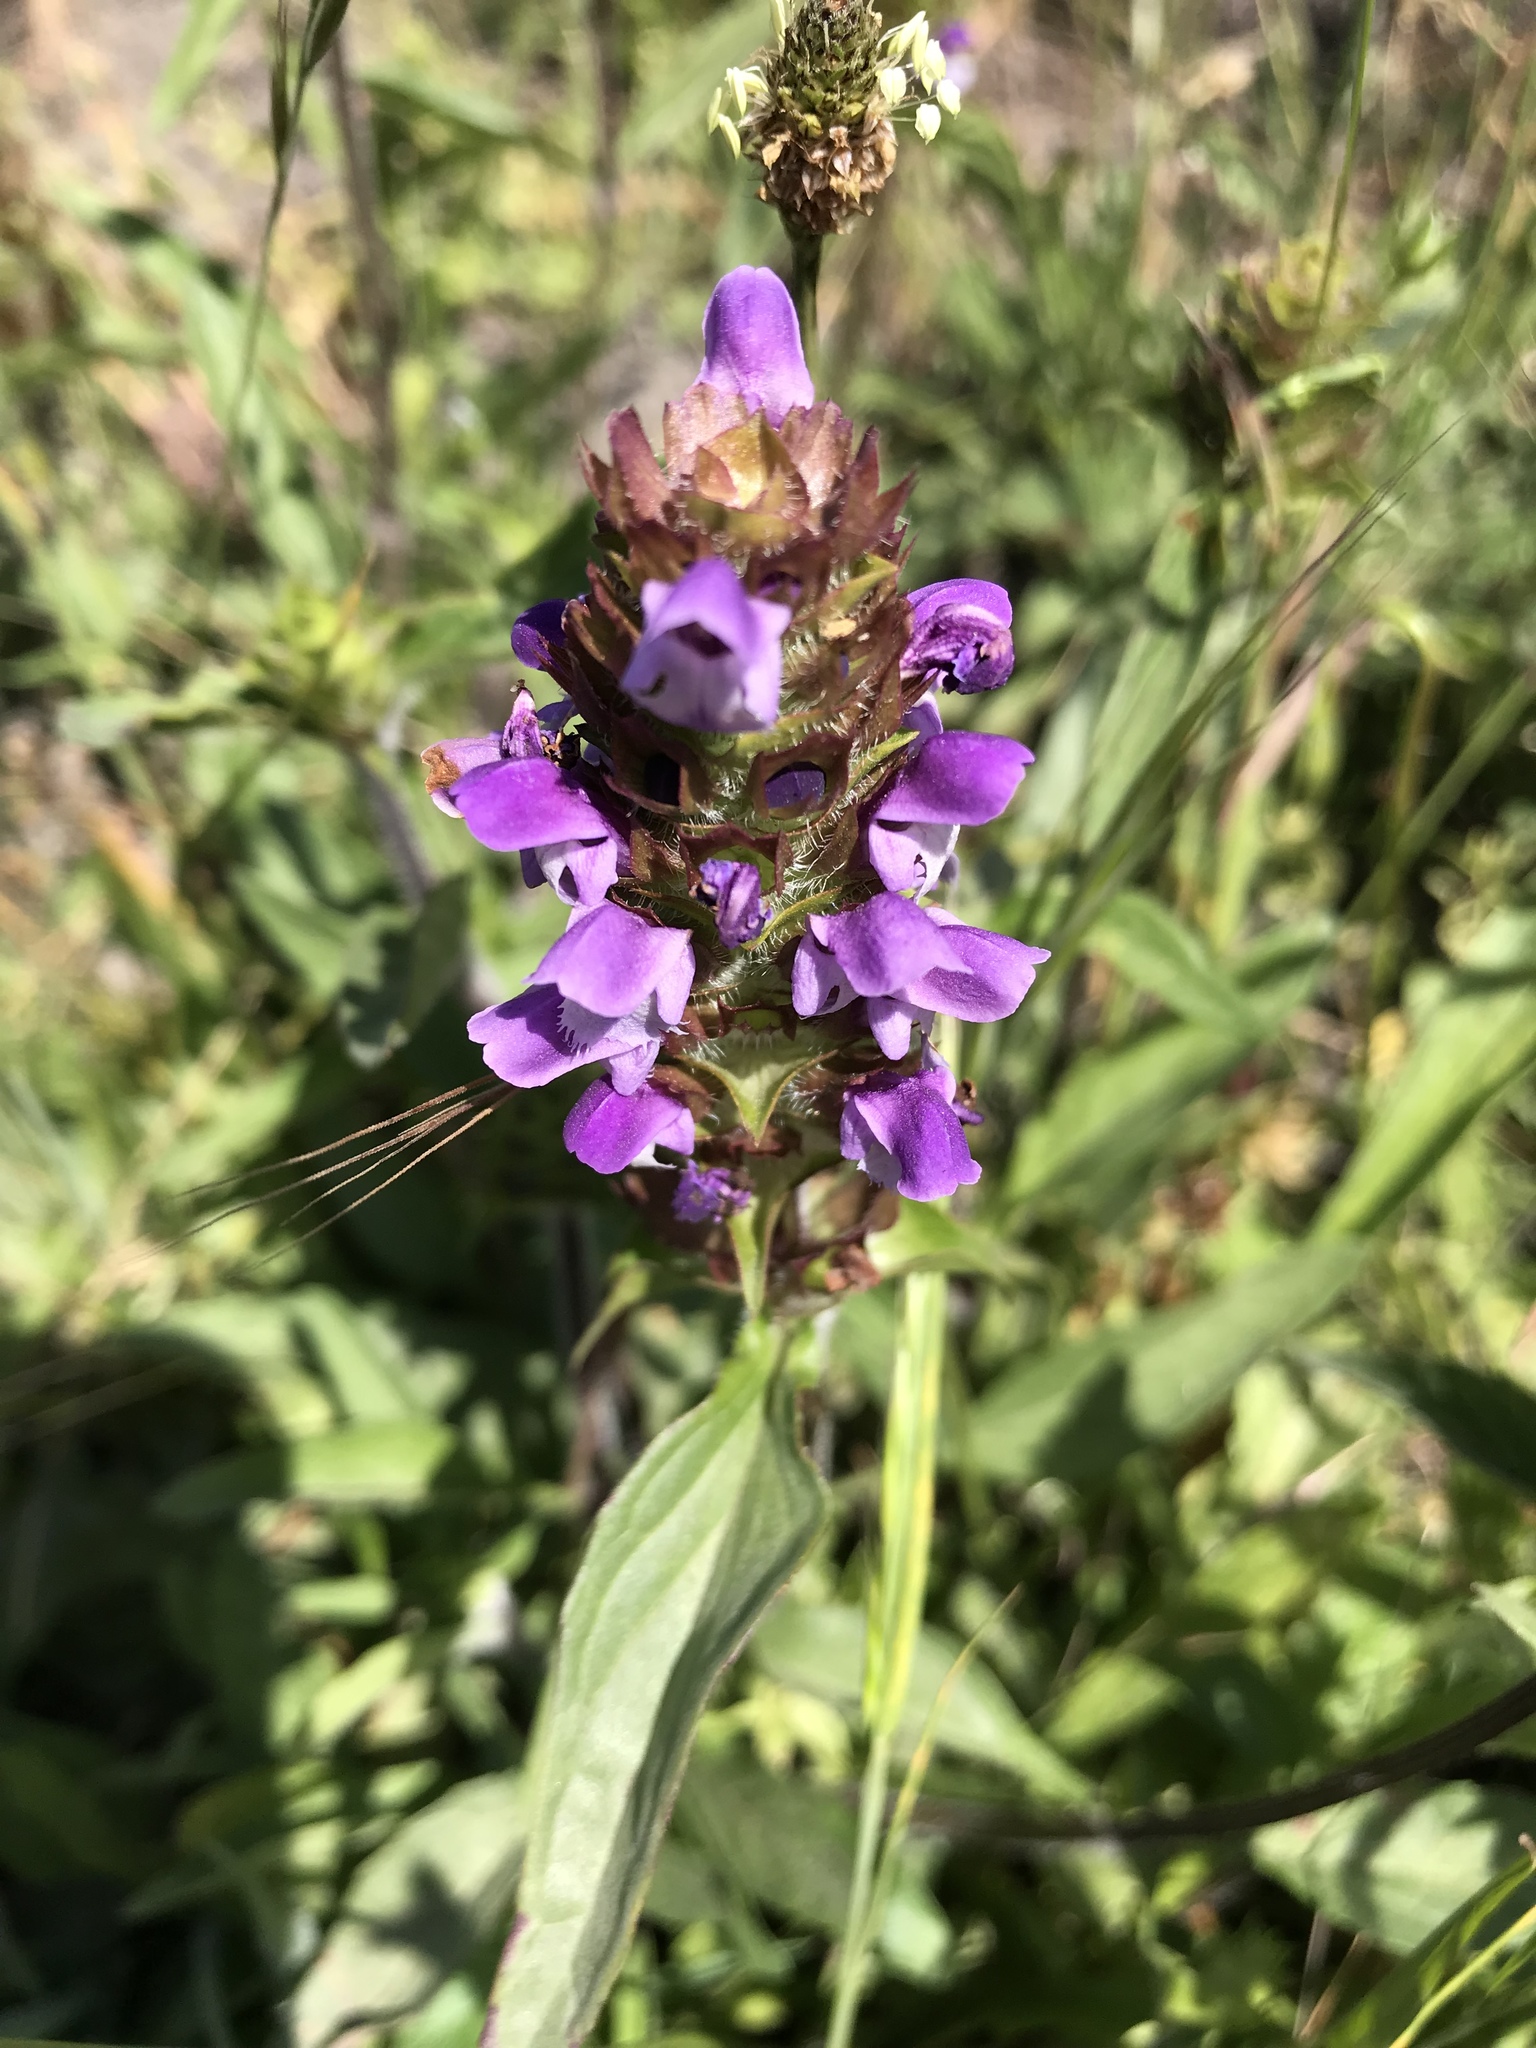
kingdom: Plantae
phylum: Tracheophyta
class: Magnoliopsida
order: Lamiales
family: Lamiaceae
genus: Prunella
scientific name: Prunella vulgaris
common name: Heal-all
